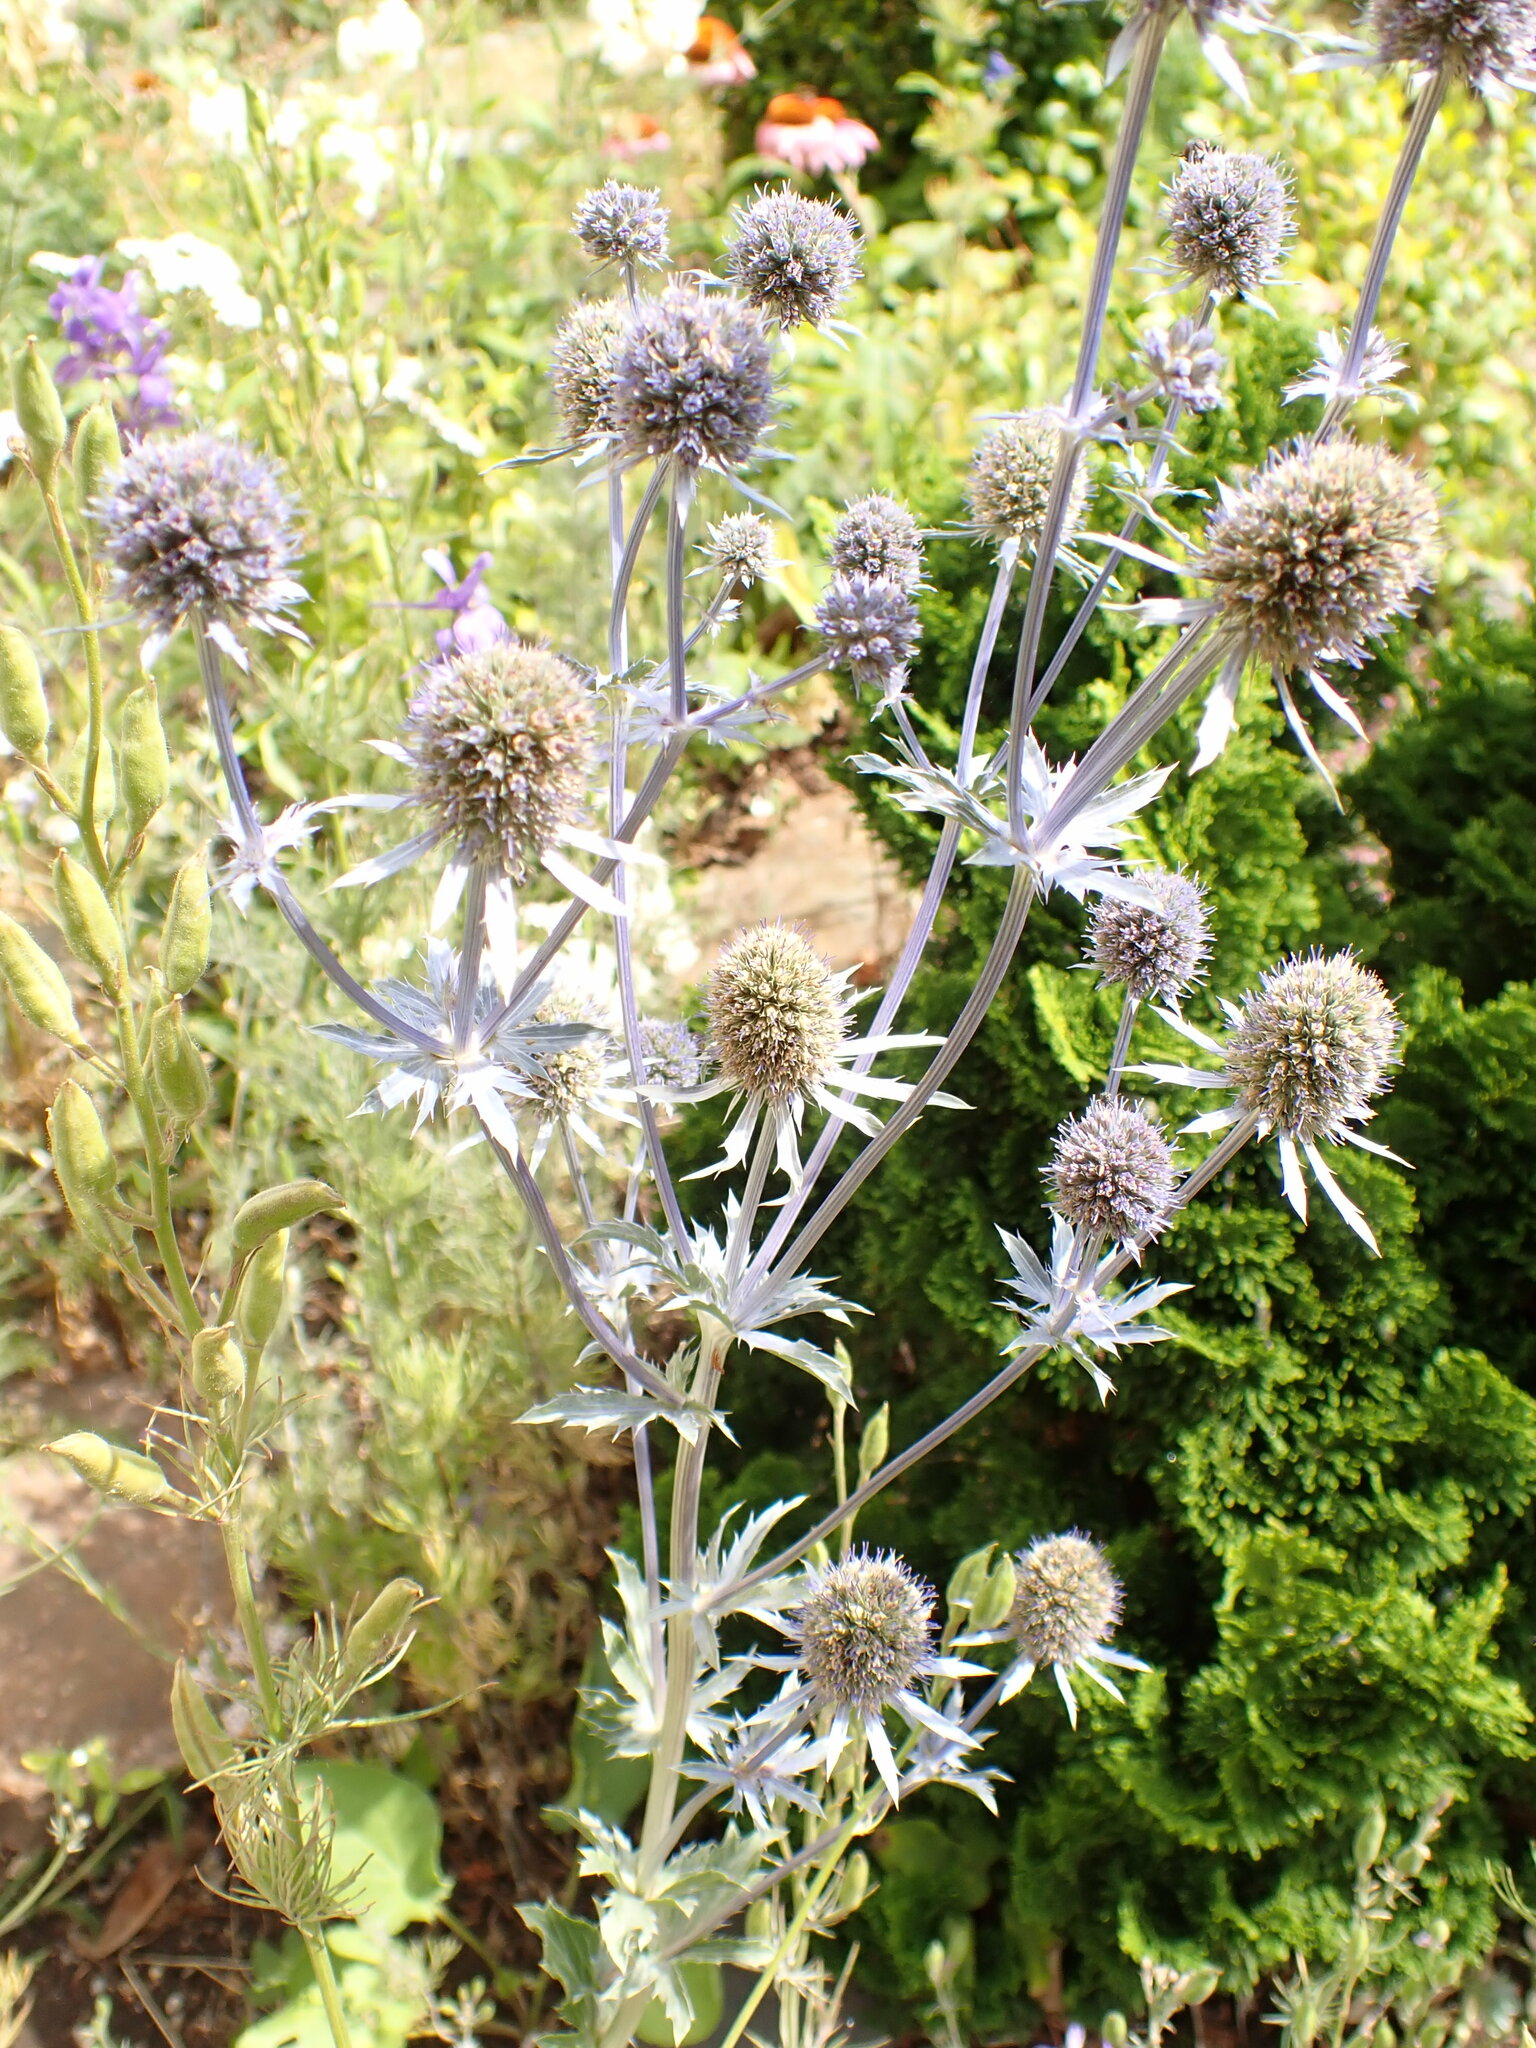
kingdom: Plantae
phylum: Tracheophyta
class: Magnoliopsida
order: Apiales
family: Apiaceae
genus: Eryngium
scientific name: Eryngium planum
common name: Blue eryngo
